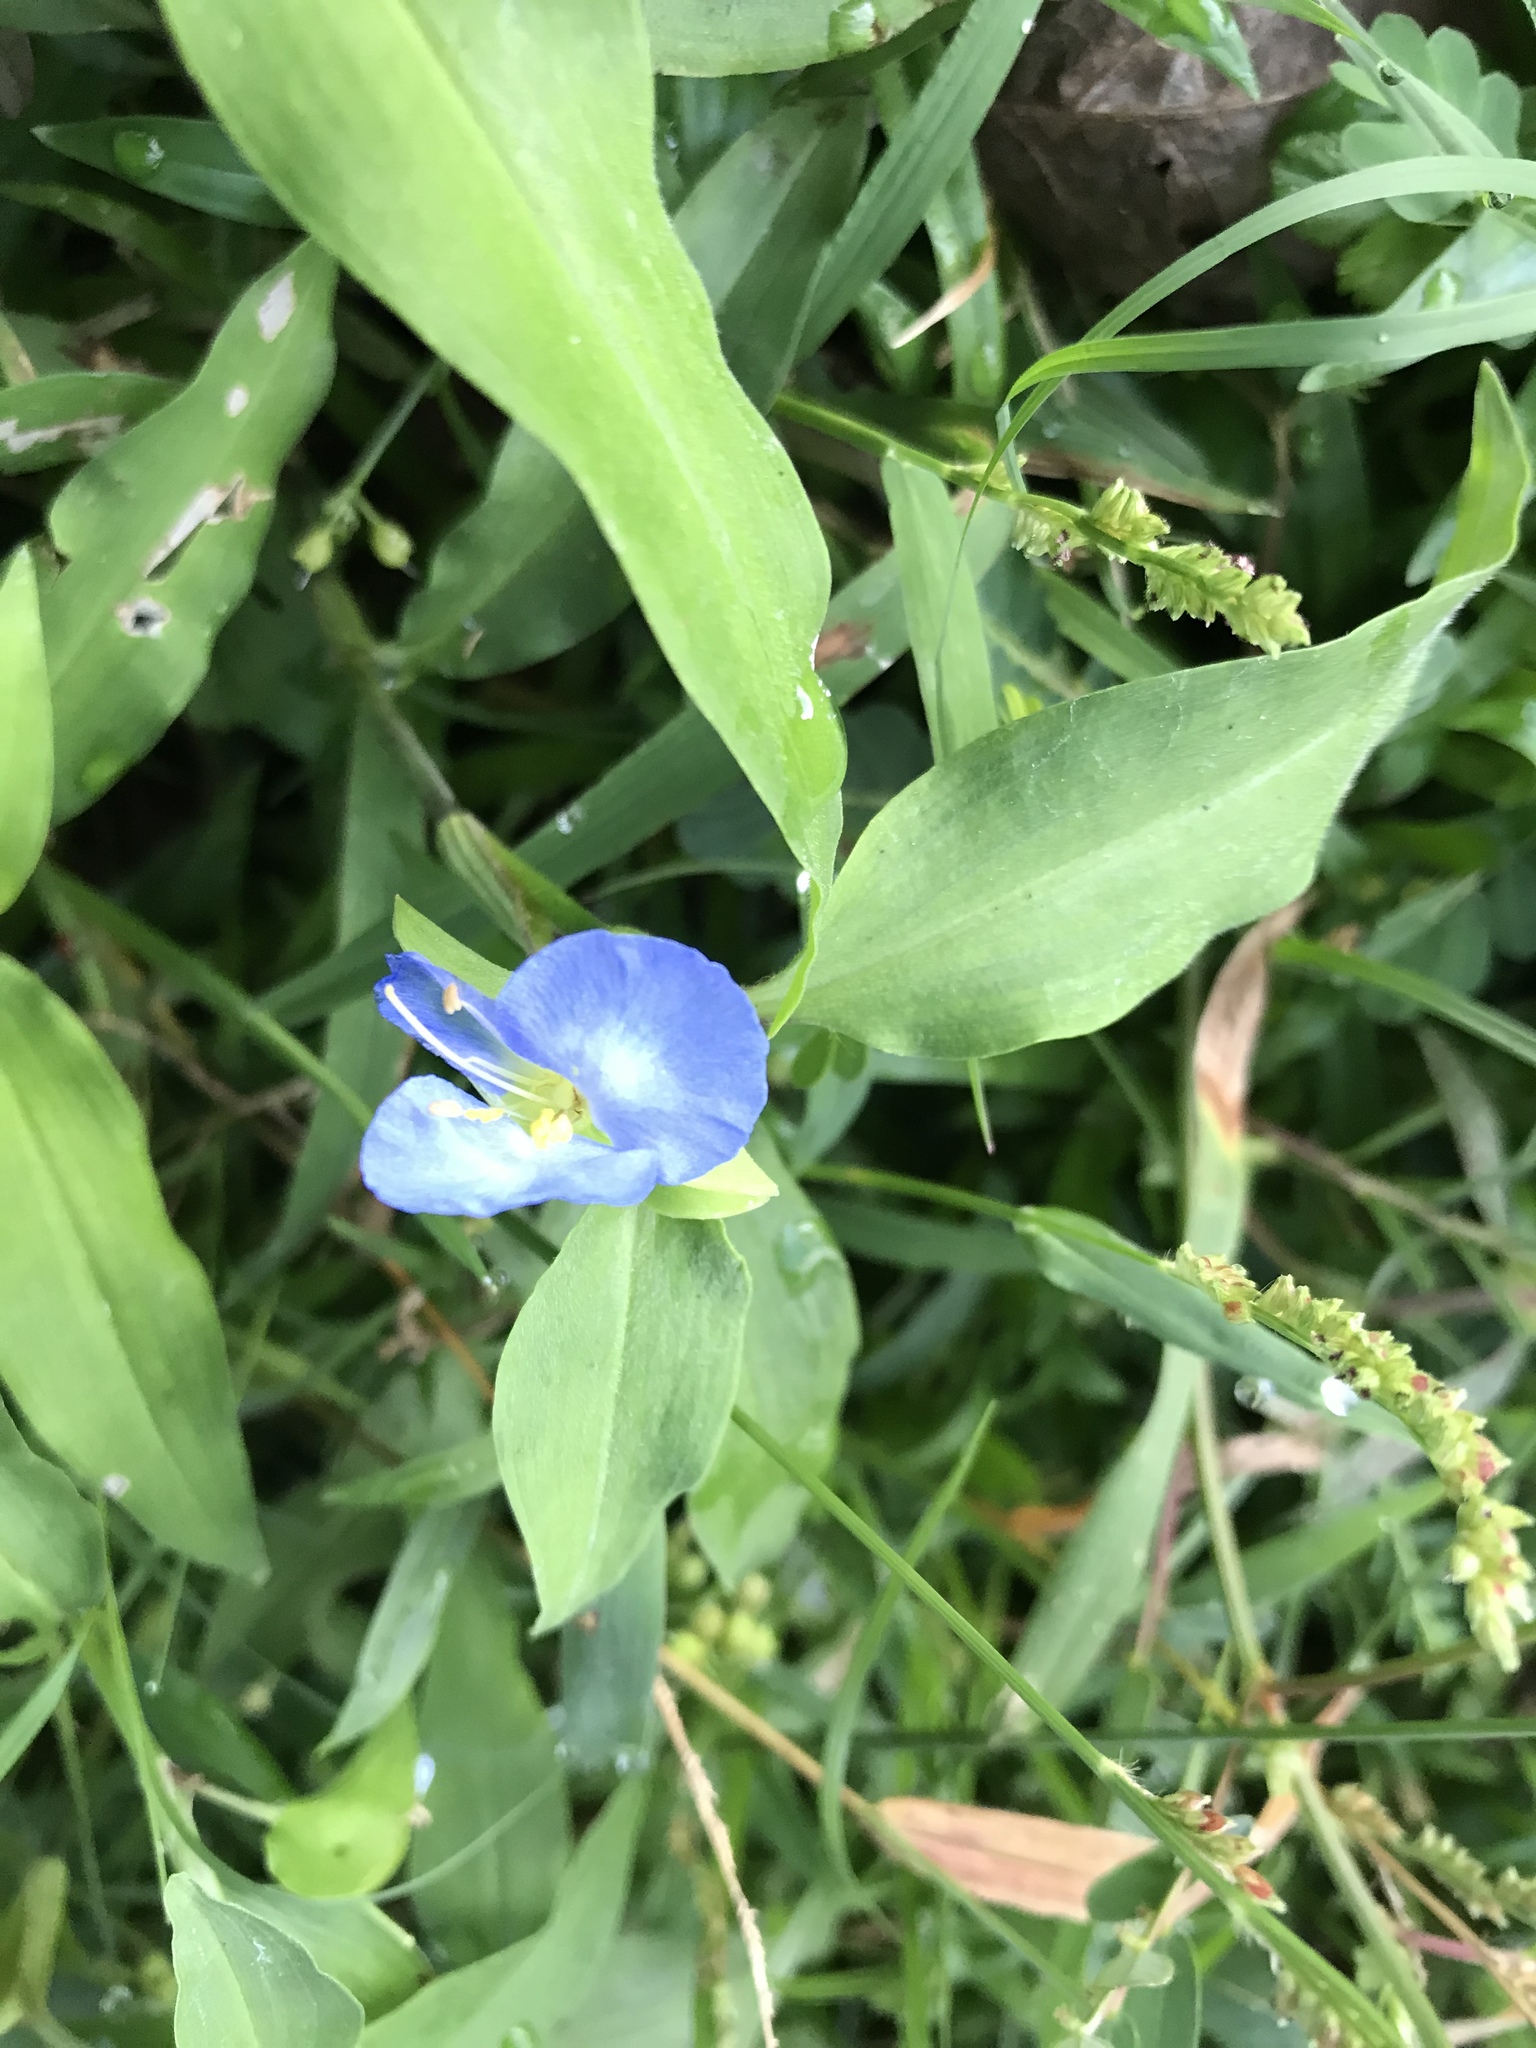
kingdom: Plantae
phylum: Tracheophyta
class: Liliopsida
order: Commelinales
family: Commelinaceae
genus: Commelina
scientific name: Commelina virginica
